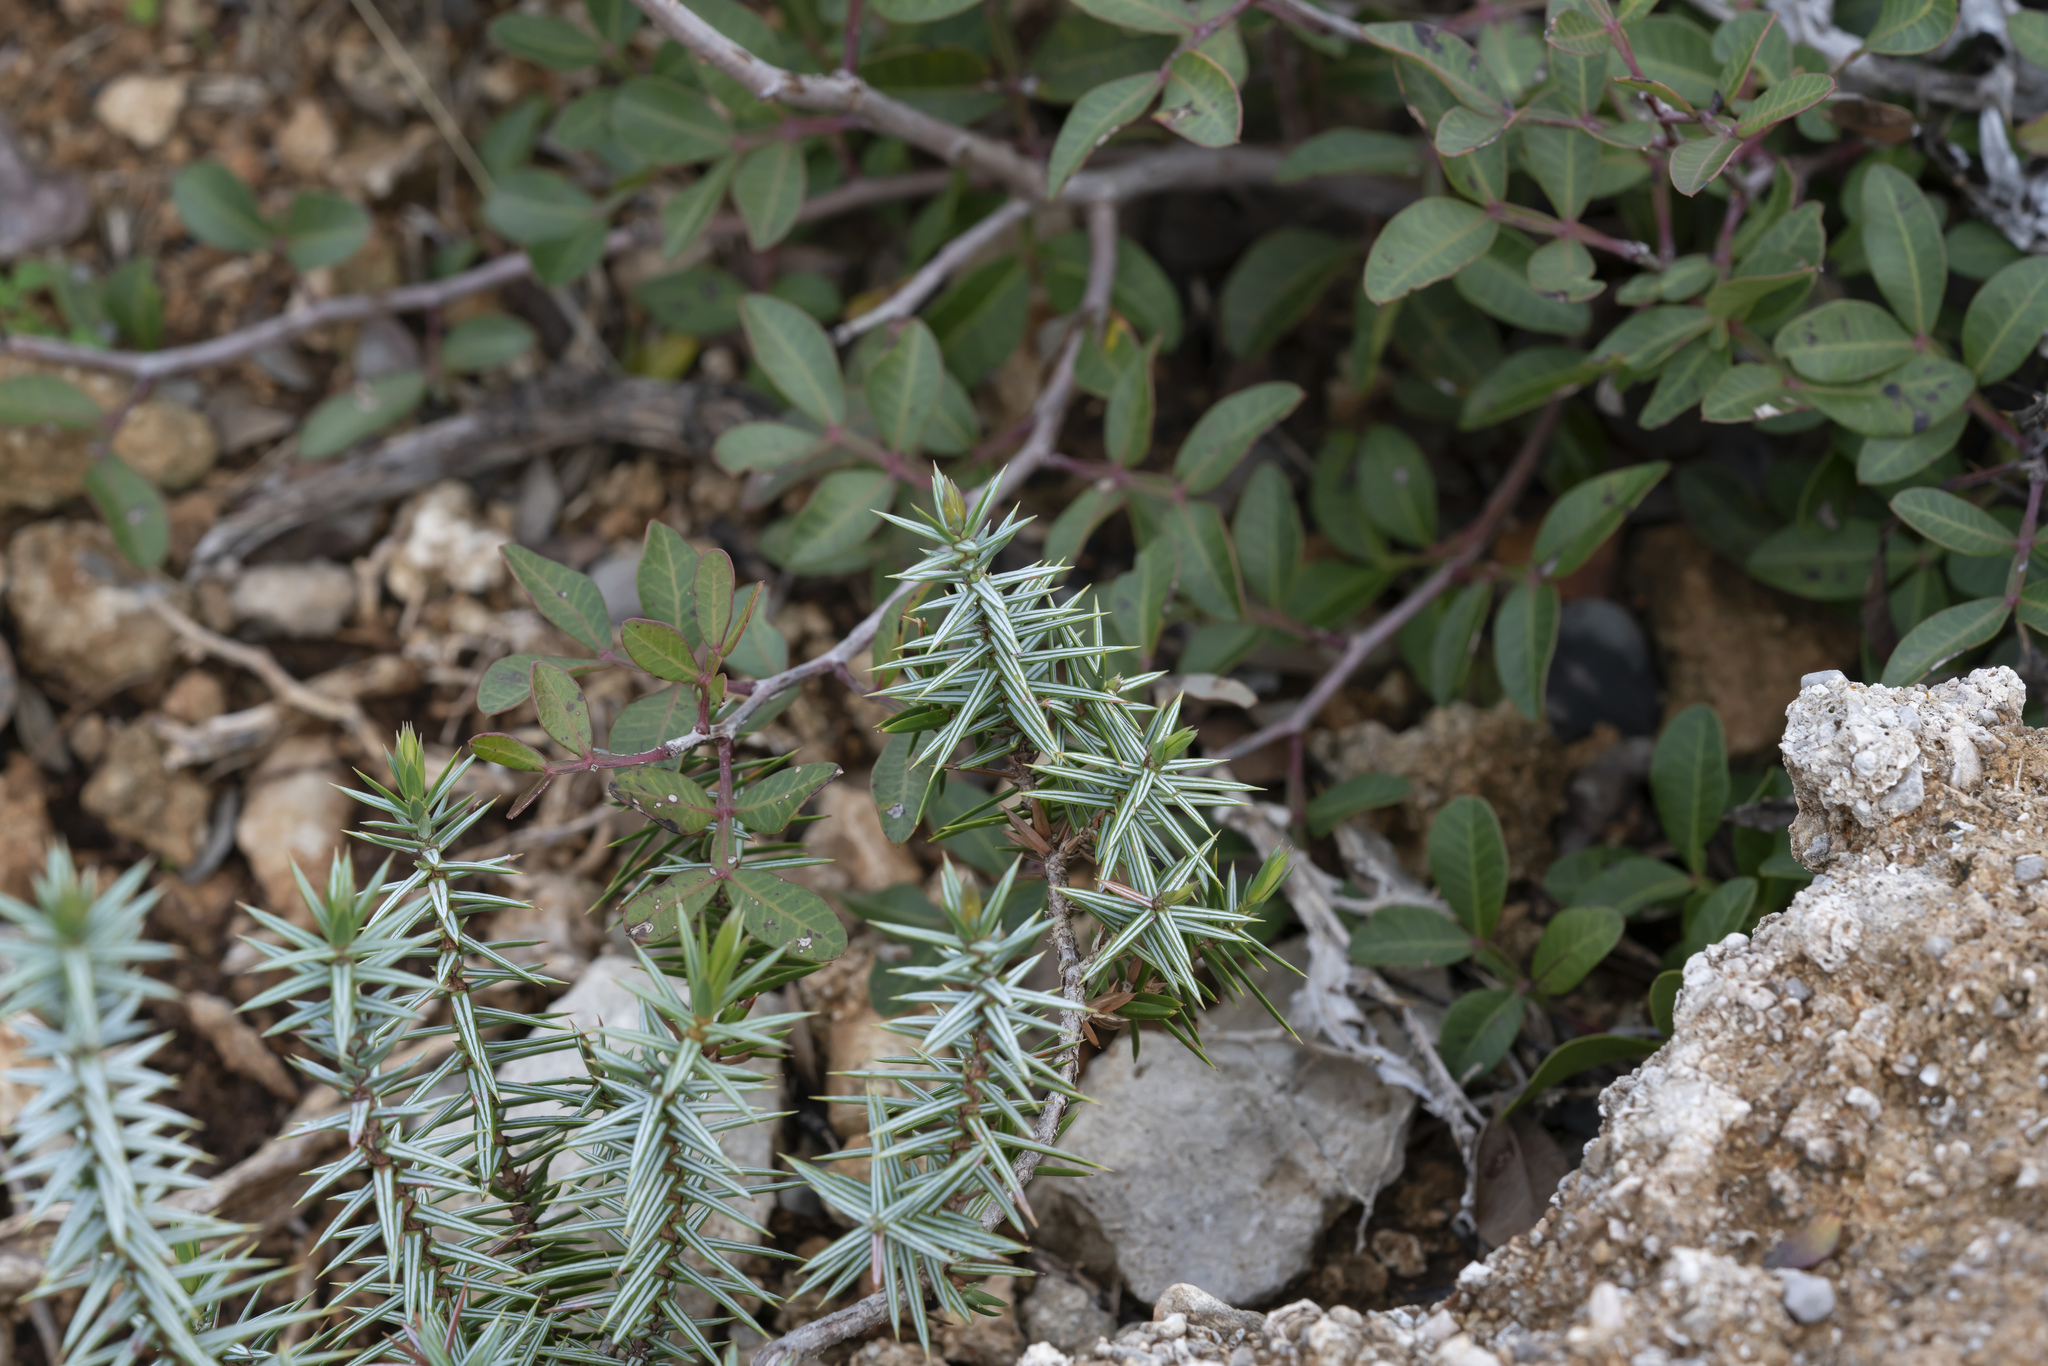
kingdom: Plantae
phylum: Tracheophyta
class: Pinopsida
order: Pinales
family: Cupressaceae
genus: Juniperus
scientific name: Juniperus oxycedrus
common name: Prickly juniper
